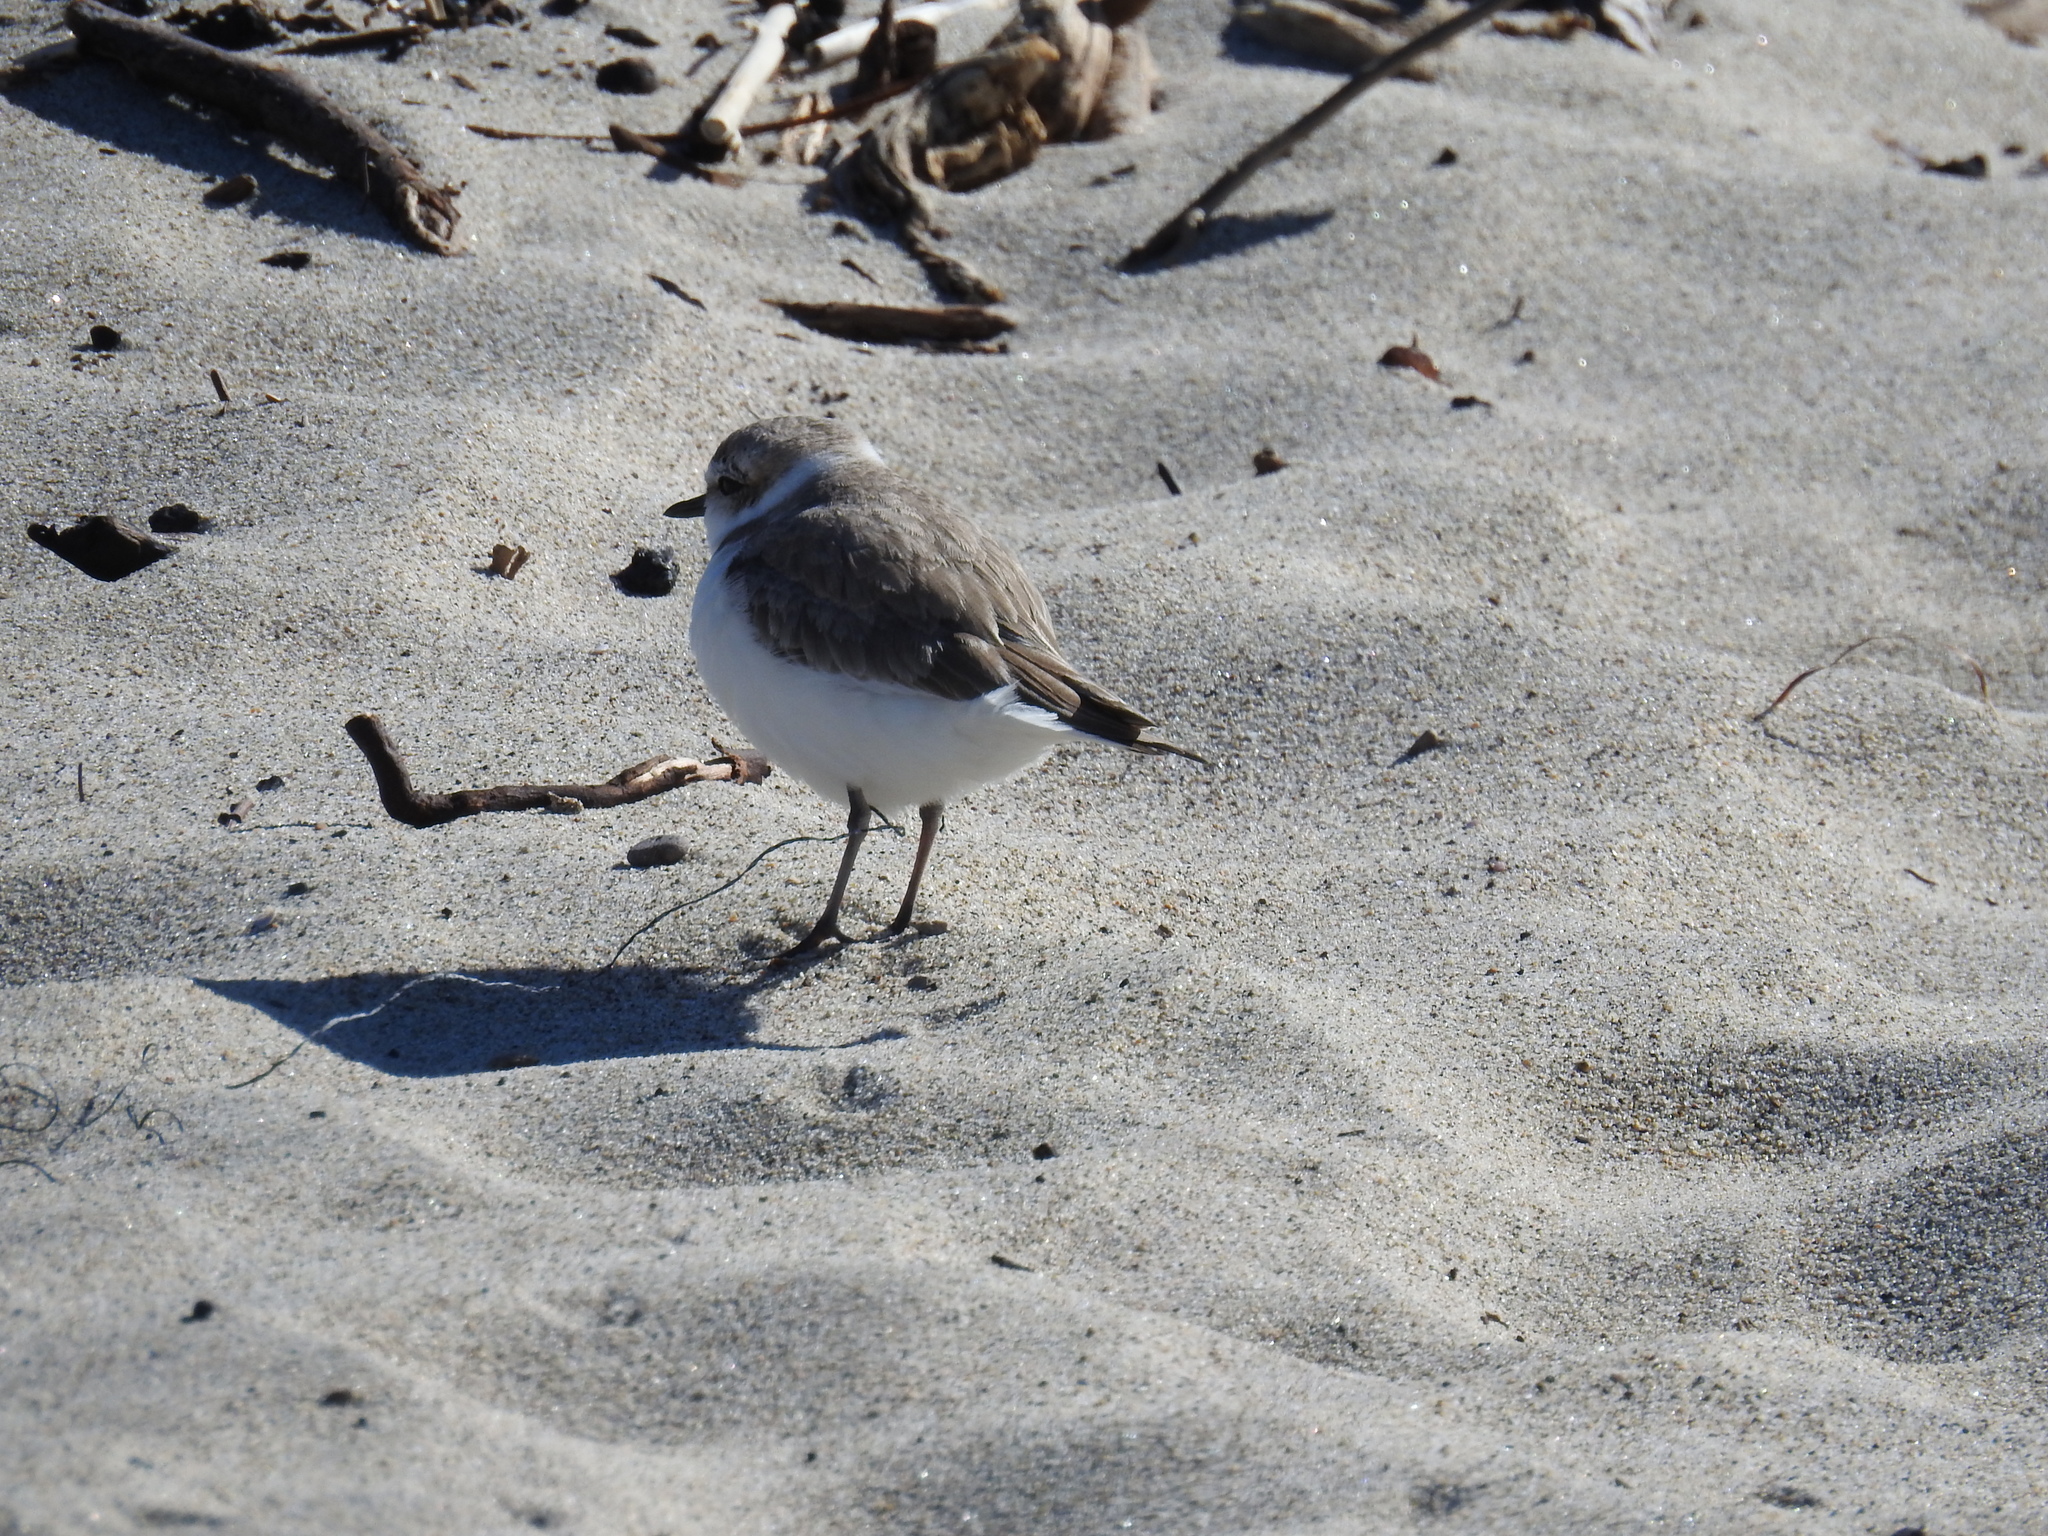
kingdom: Animalia
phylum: Chordata
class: Aves
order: Charadriiformes
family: Charadriidae
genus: Anarhynchus
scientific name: Anarhynchus
